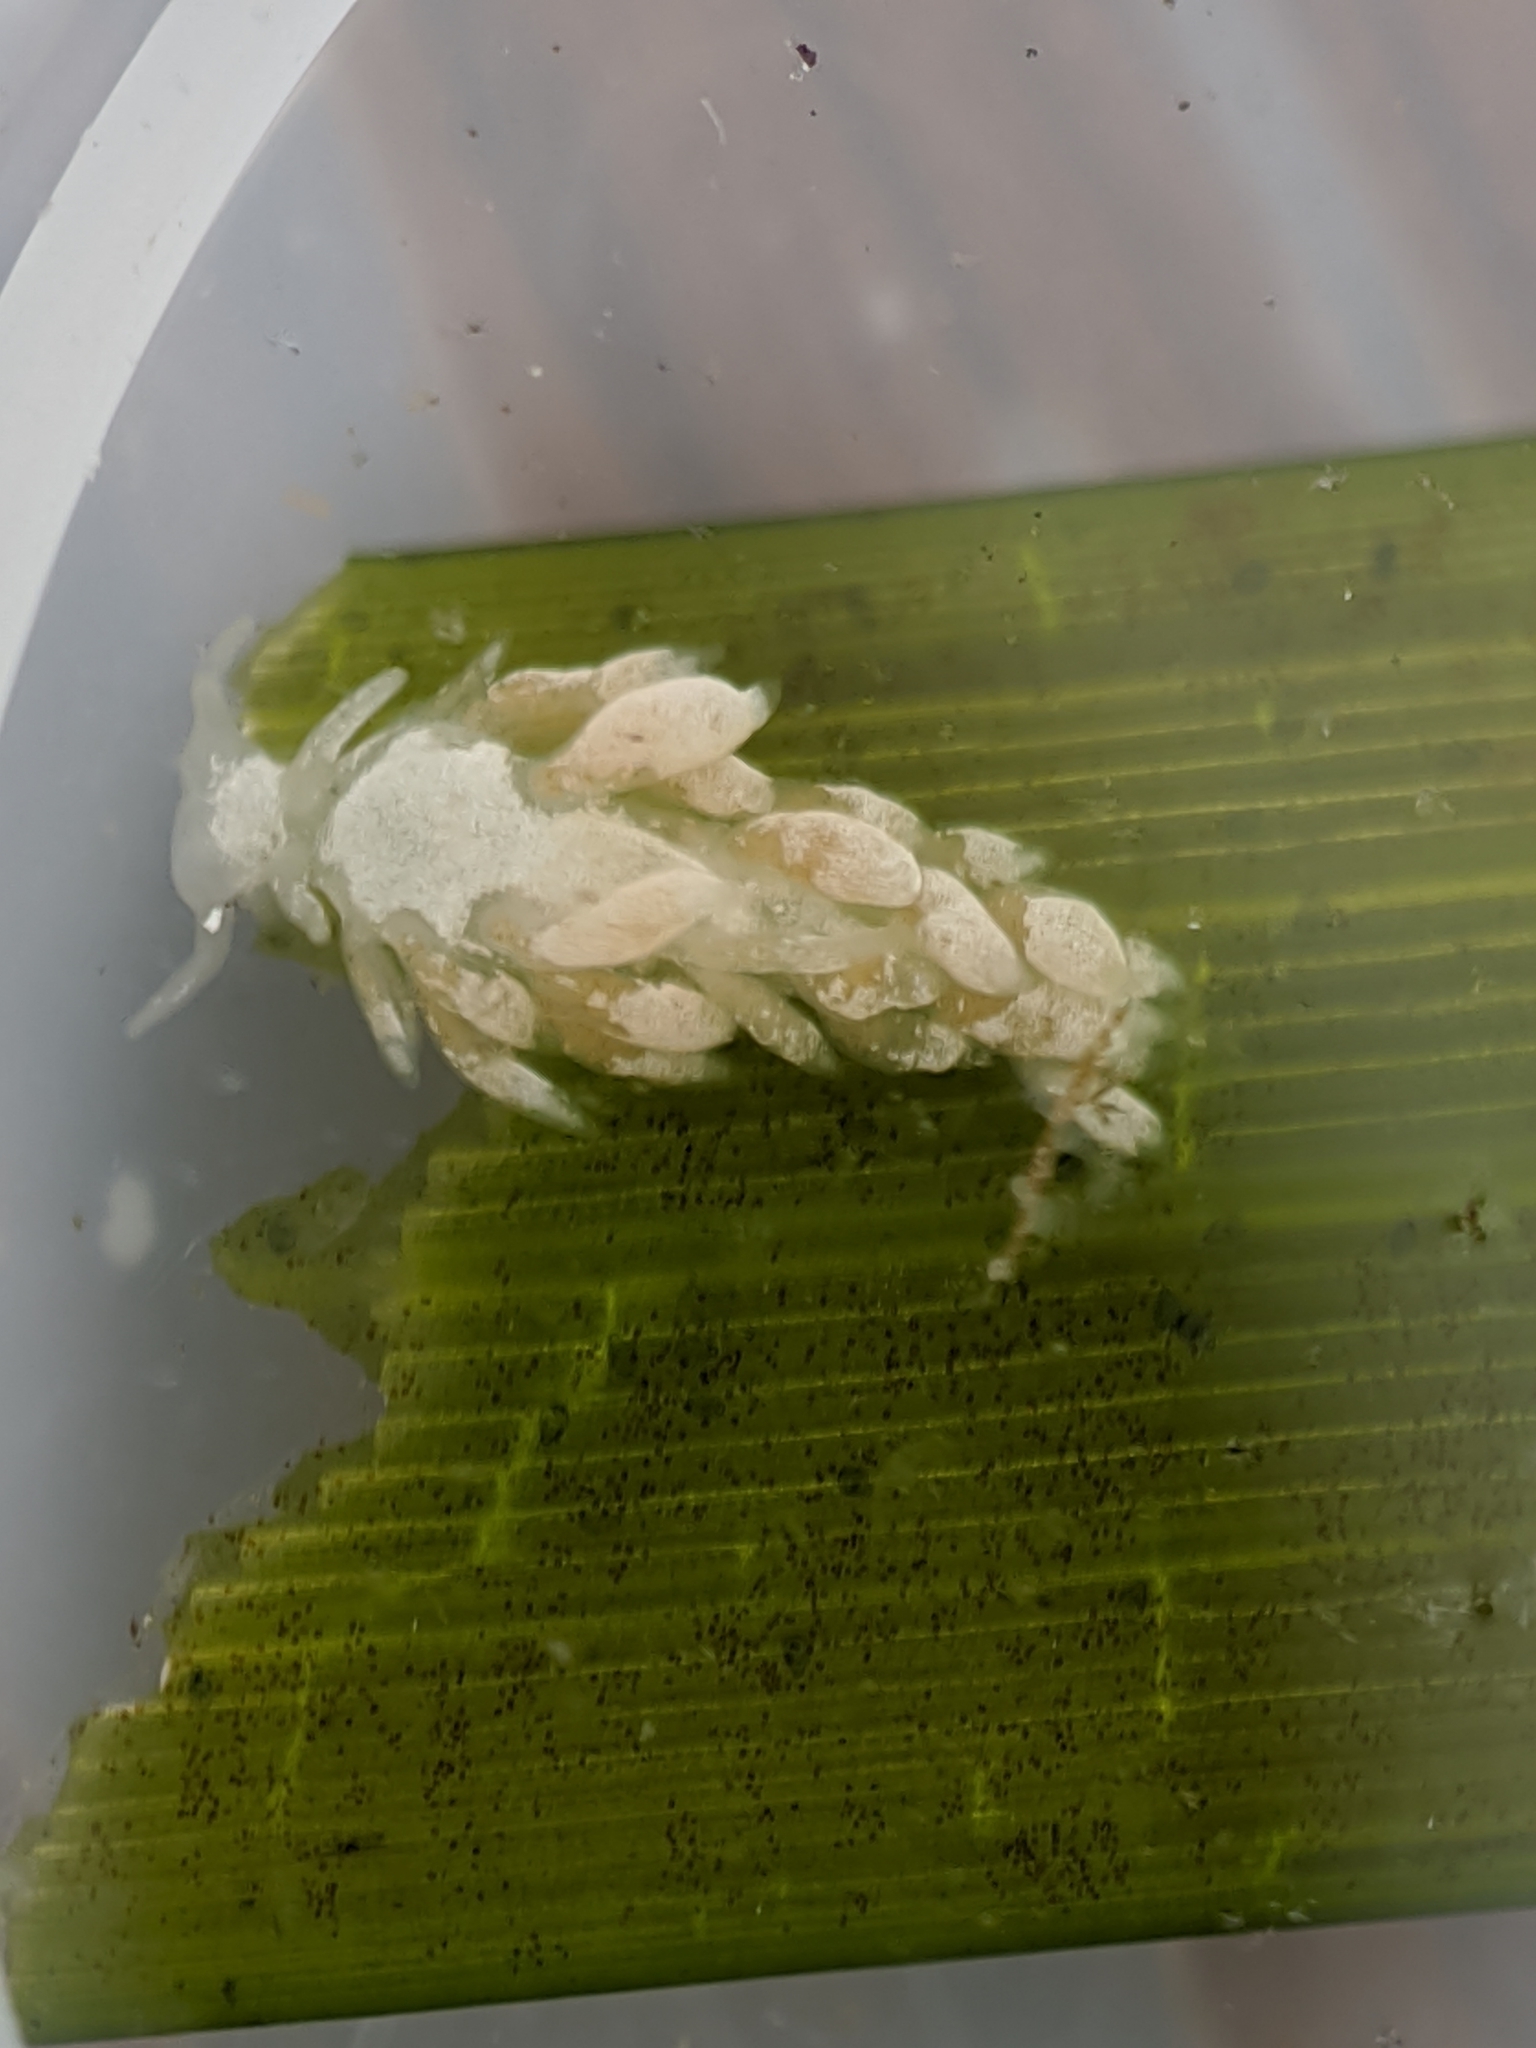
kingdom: Animalia
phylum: Mollusca
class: Gastropoda
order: Nudibranchia
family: Trinchesiidae
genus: Trinchesia
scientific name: Trinchesia albocrusta
